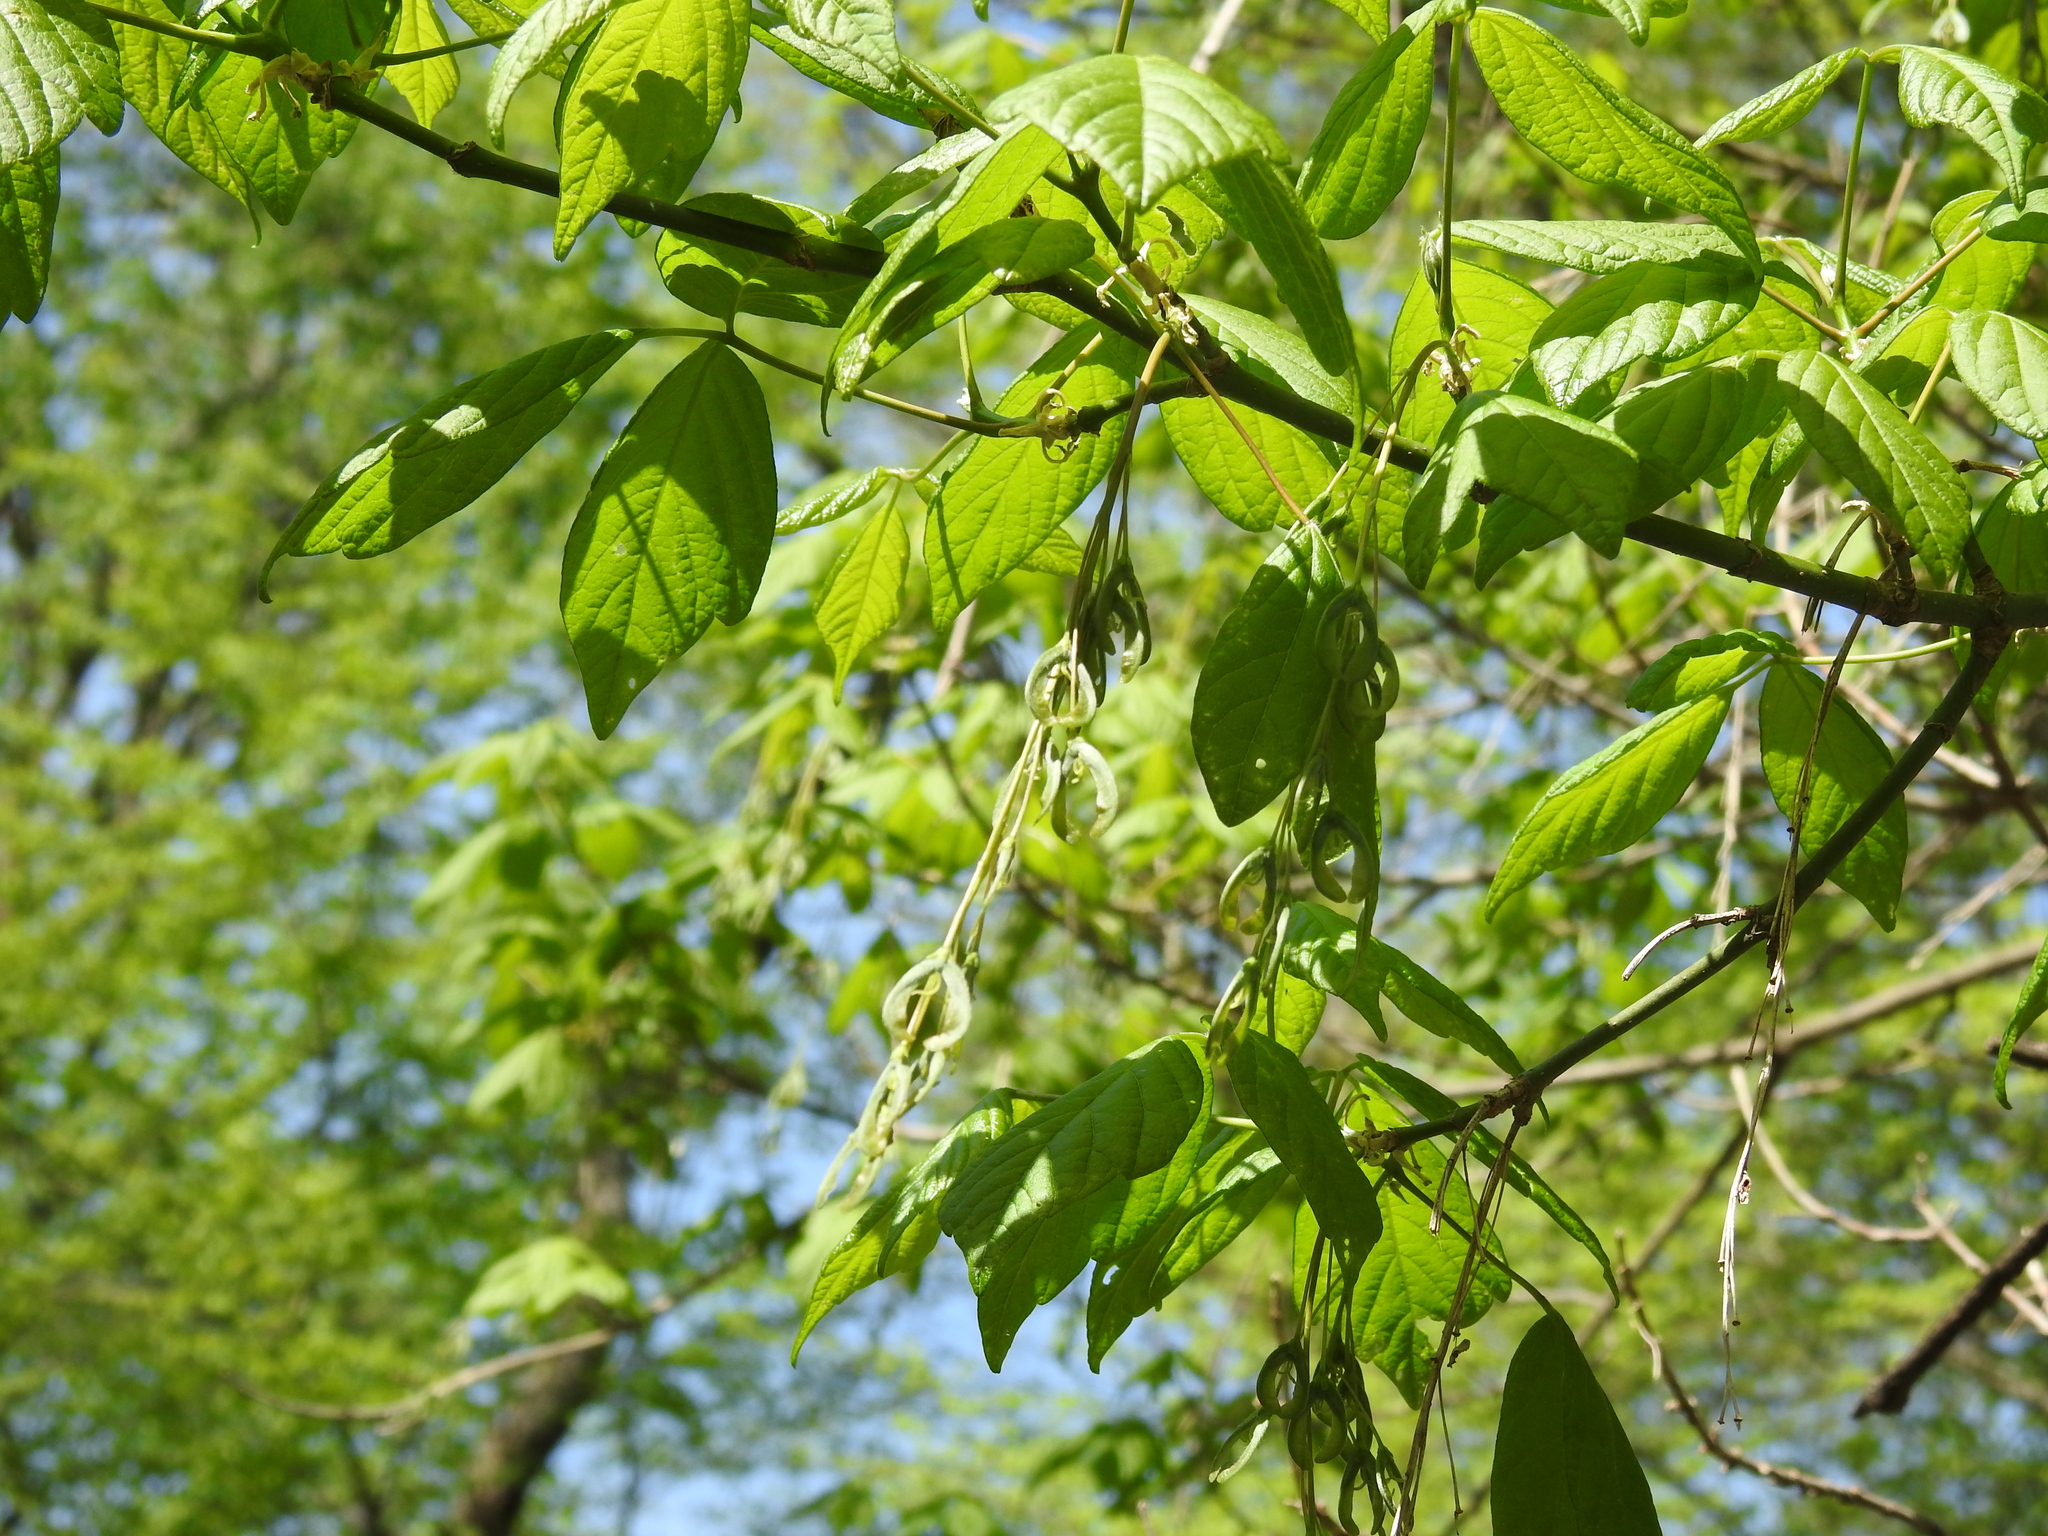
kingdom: Plantae
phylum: Tracheophyta
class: Magnoliopsida
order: Sapindales
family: Sapindaceae
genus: Acer
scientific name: Acer negundo
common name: Ashleaf maple
